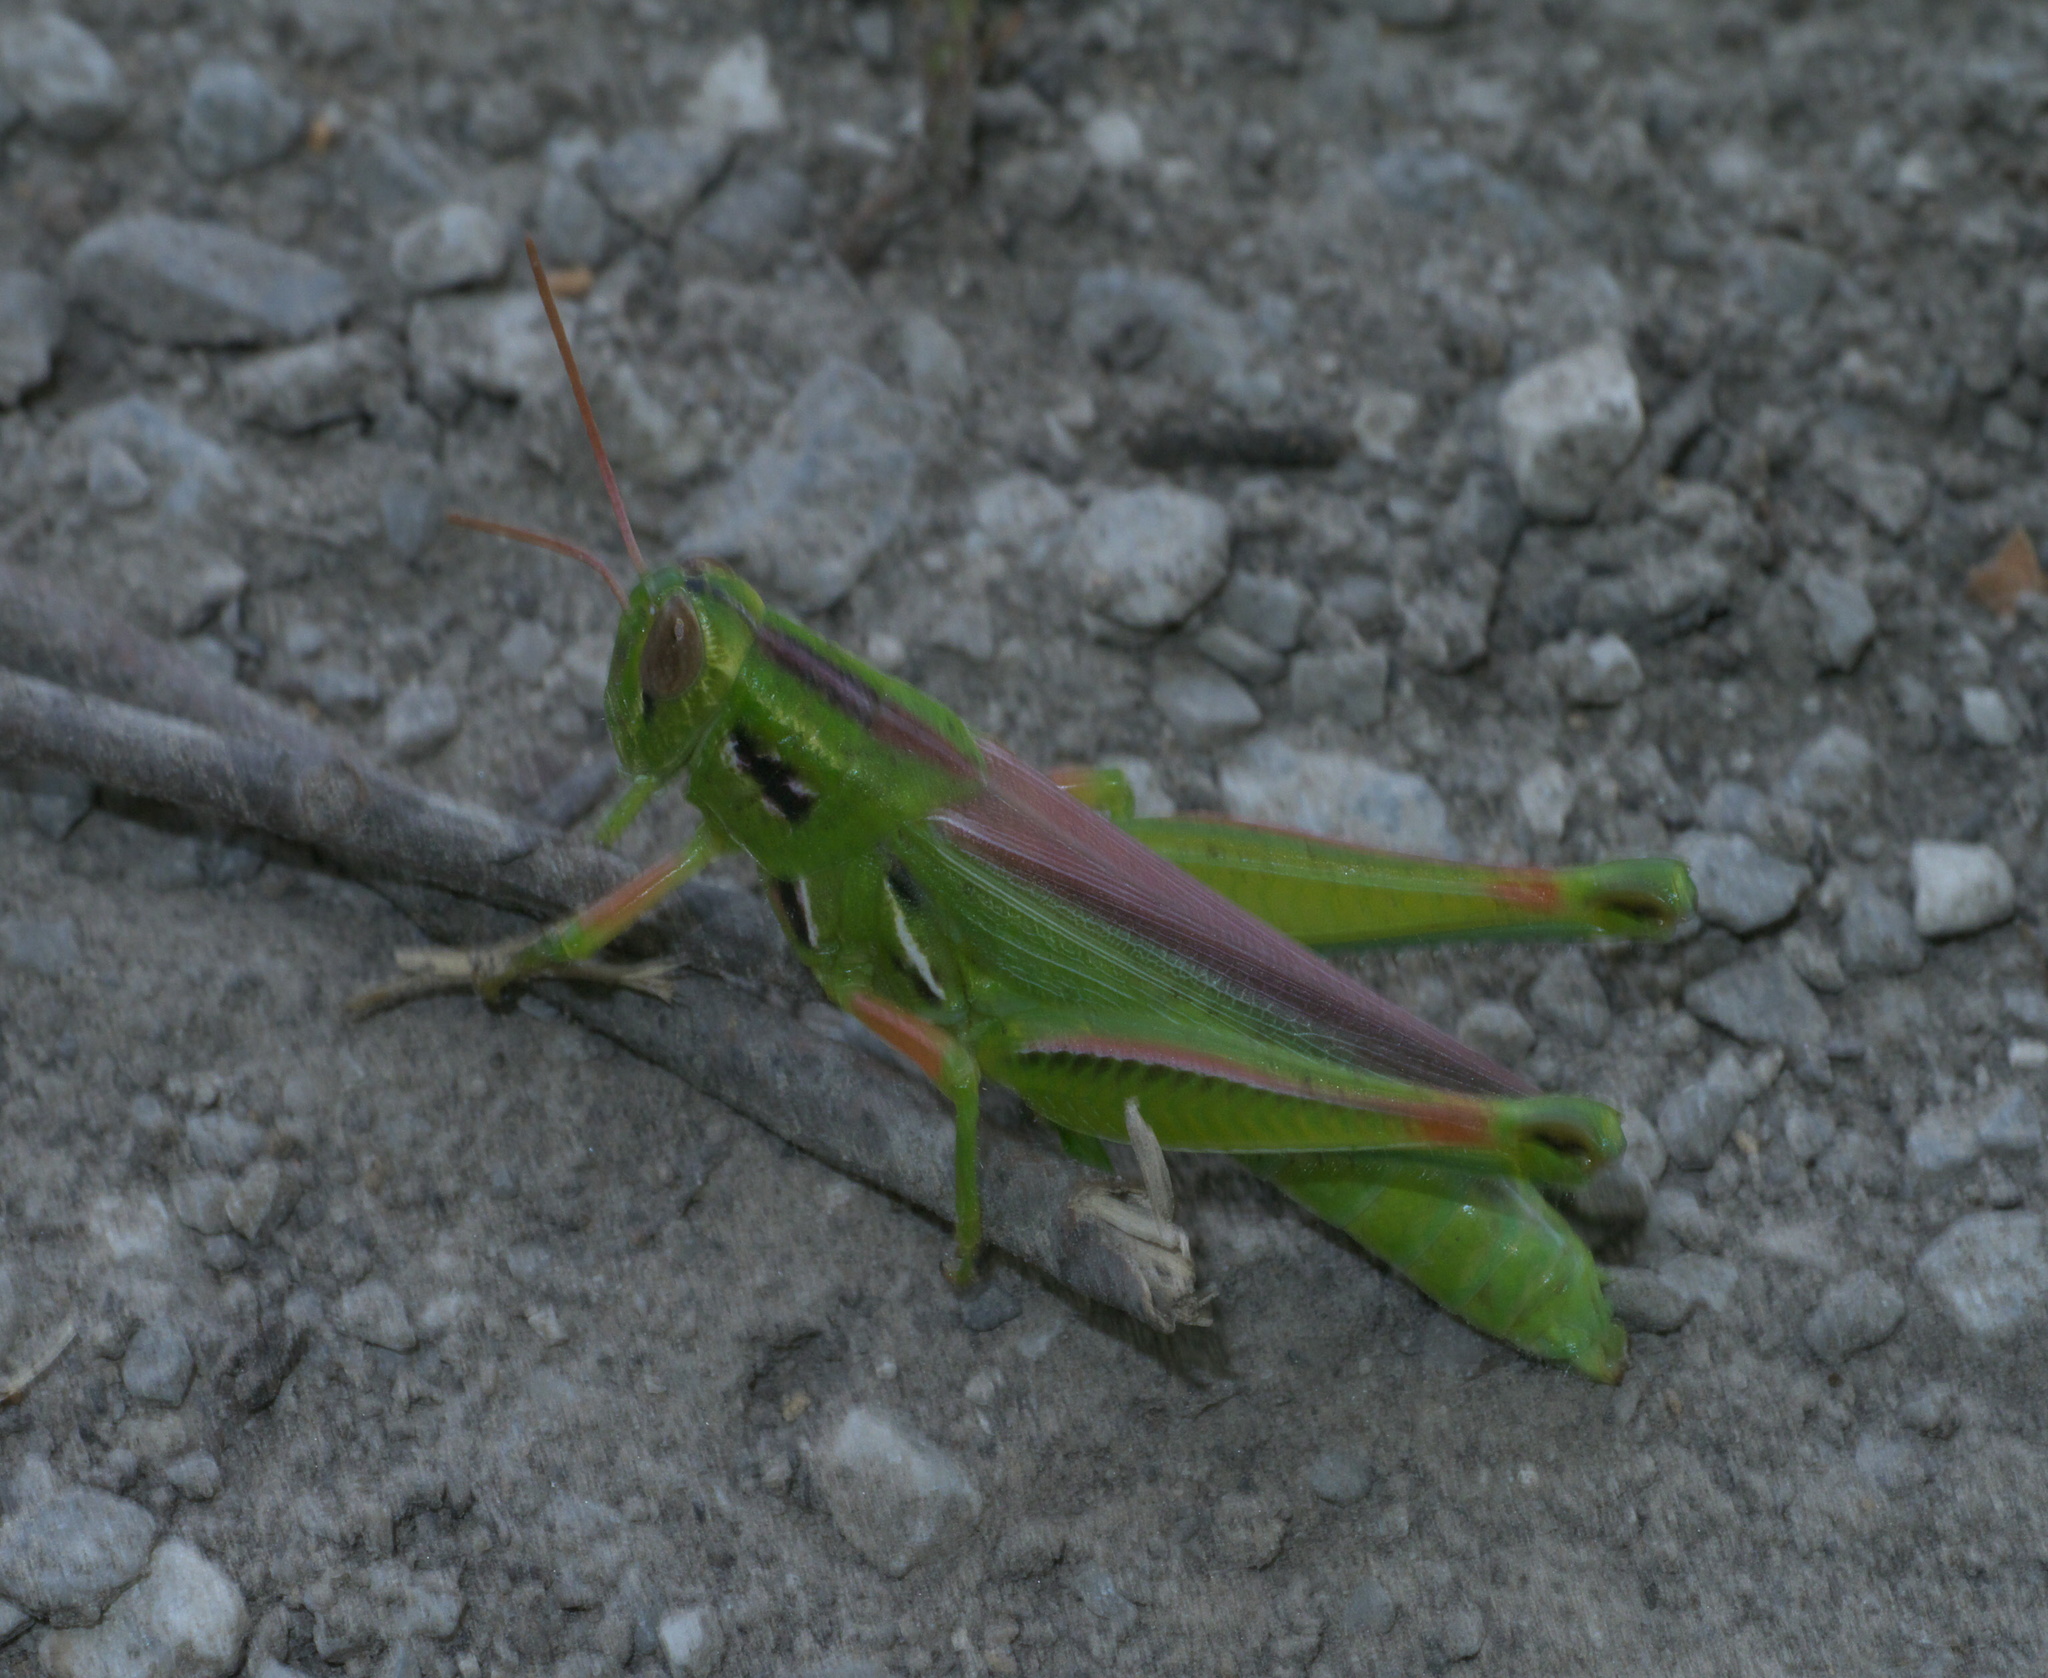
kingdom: Animalia
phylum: Arthropoda
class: Insecta
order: Orthoptera
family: Acrididae
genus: Hesperotettix
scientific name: Hesperotettix viridis
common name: Meadow purple-striped grasshopper
